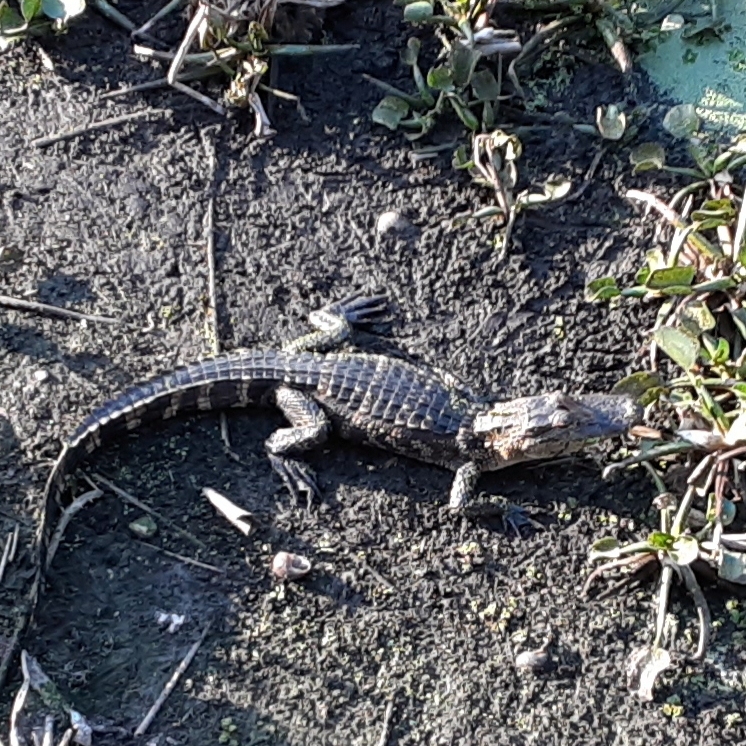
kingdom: Animalia
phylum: Chordata
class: Crocodylia
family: Alligatoridae
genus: Alligator
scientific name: Alligator mississippiensis
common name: American alligator
